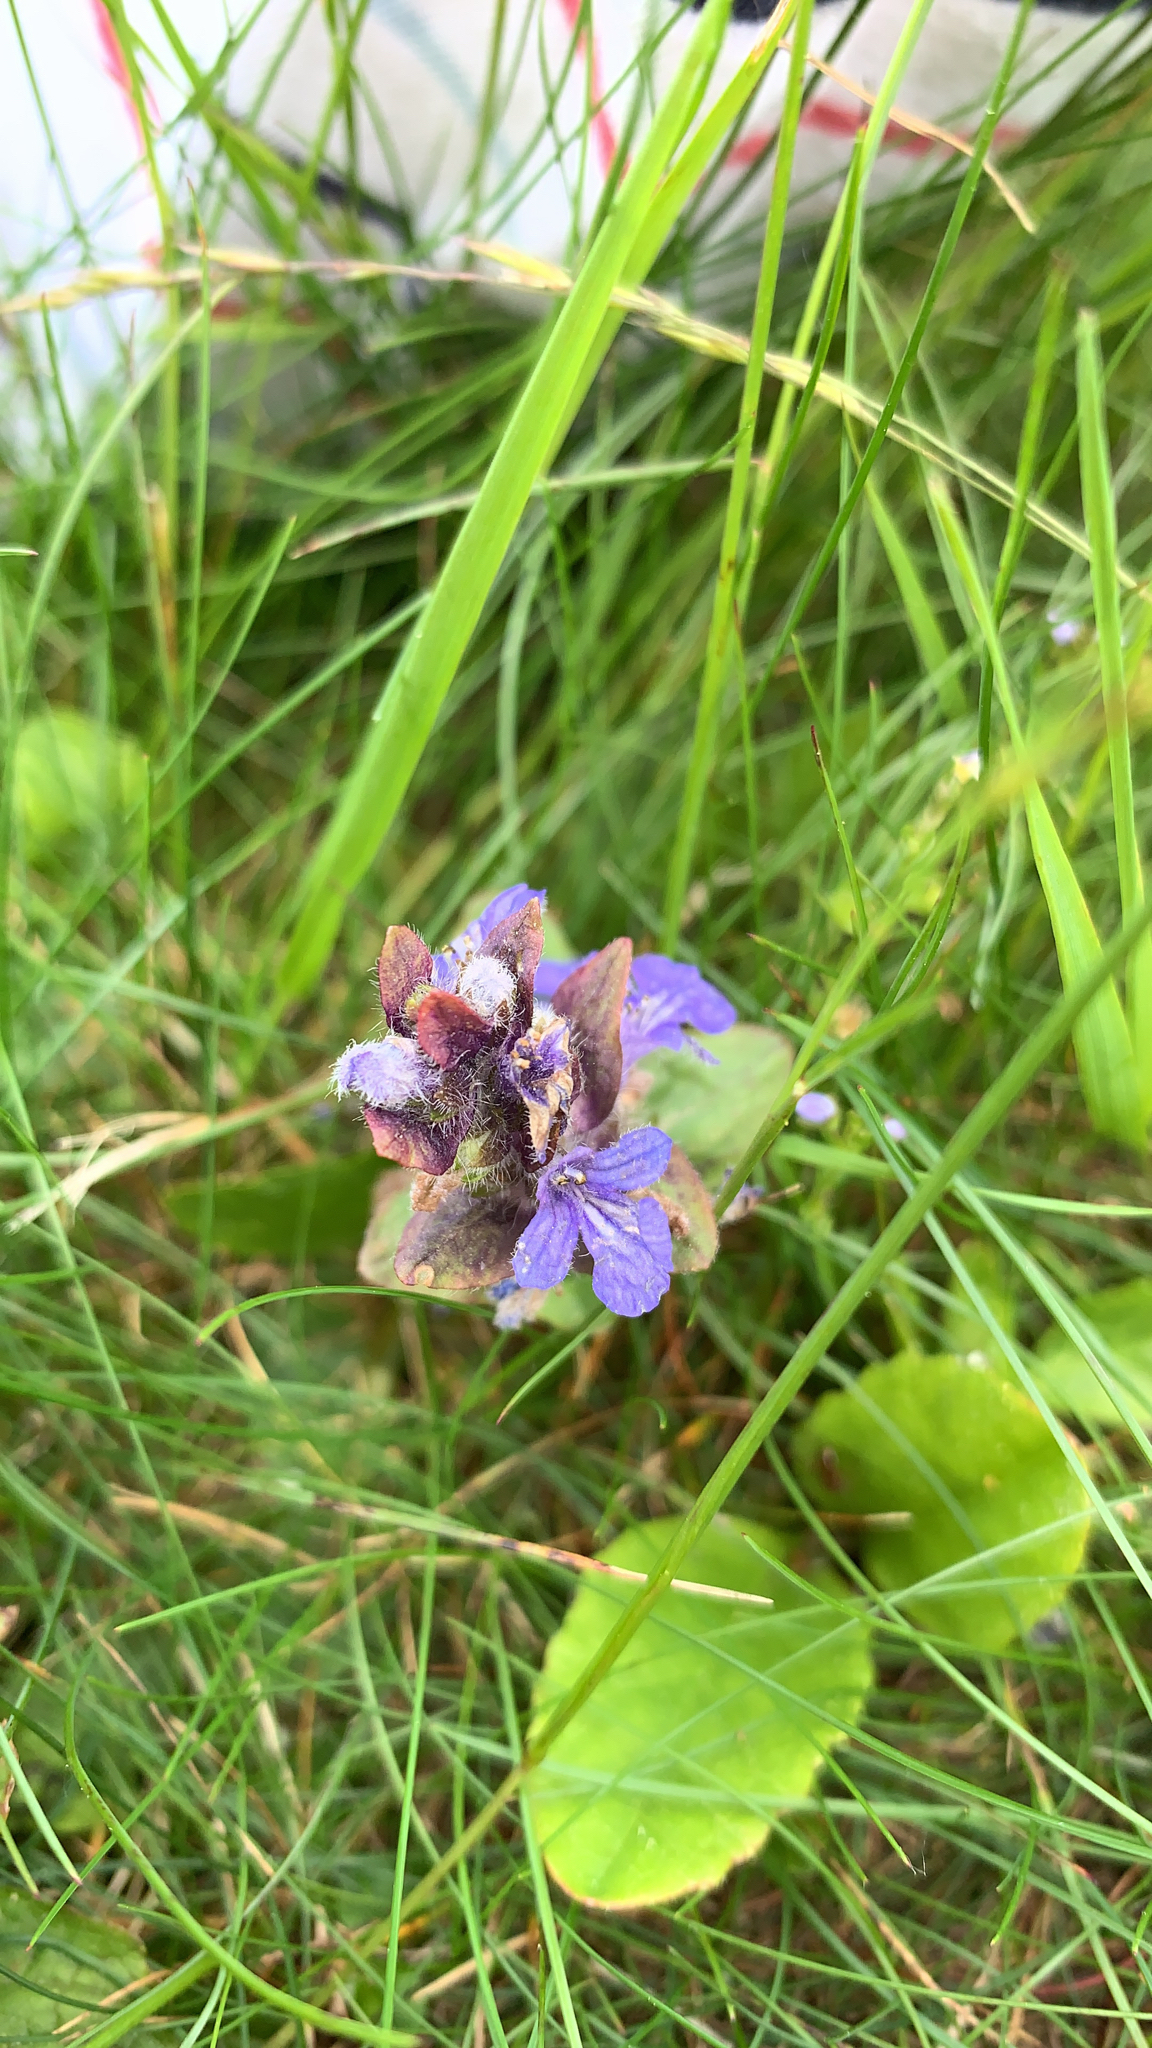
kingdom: Plantae
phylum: Tracheophyta
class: Magnoliopsida
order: Lamiales
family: Lamiaceae
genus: Ajuga
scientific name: Ajuga reptans
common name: Bugle
